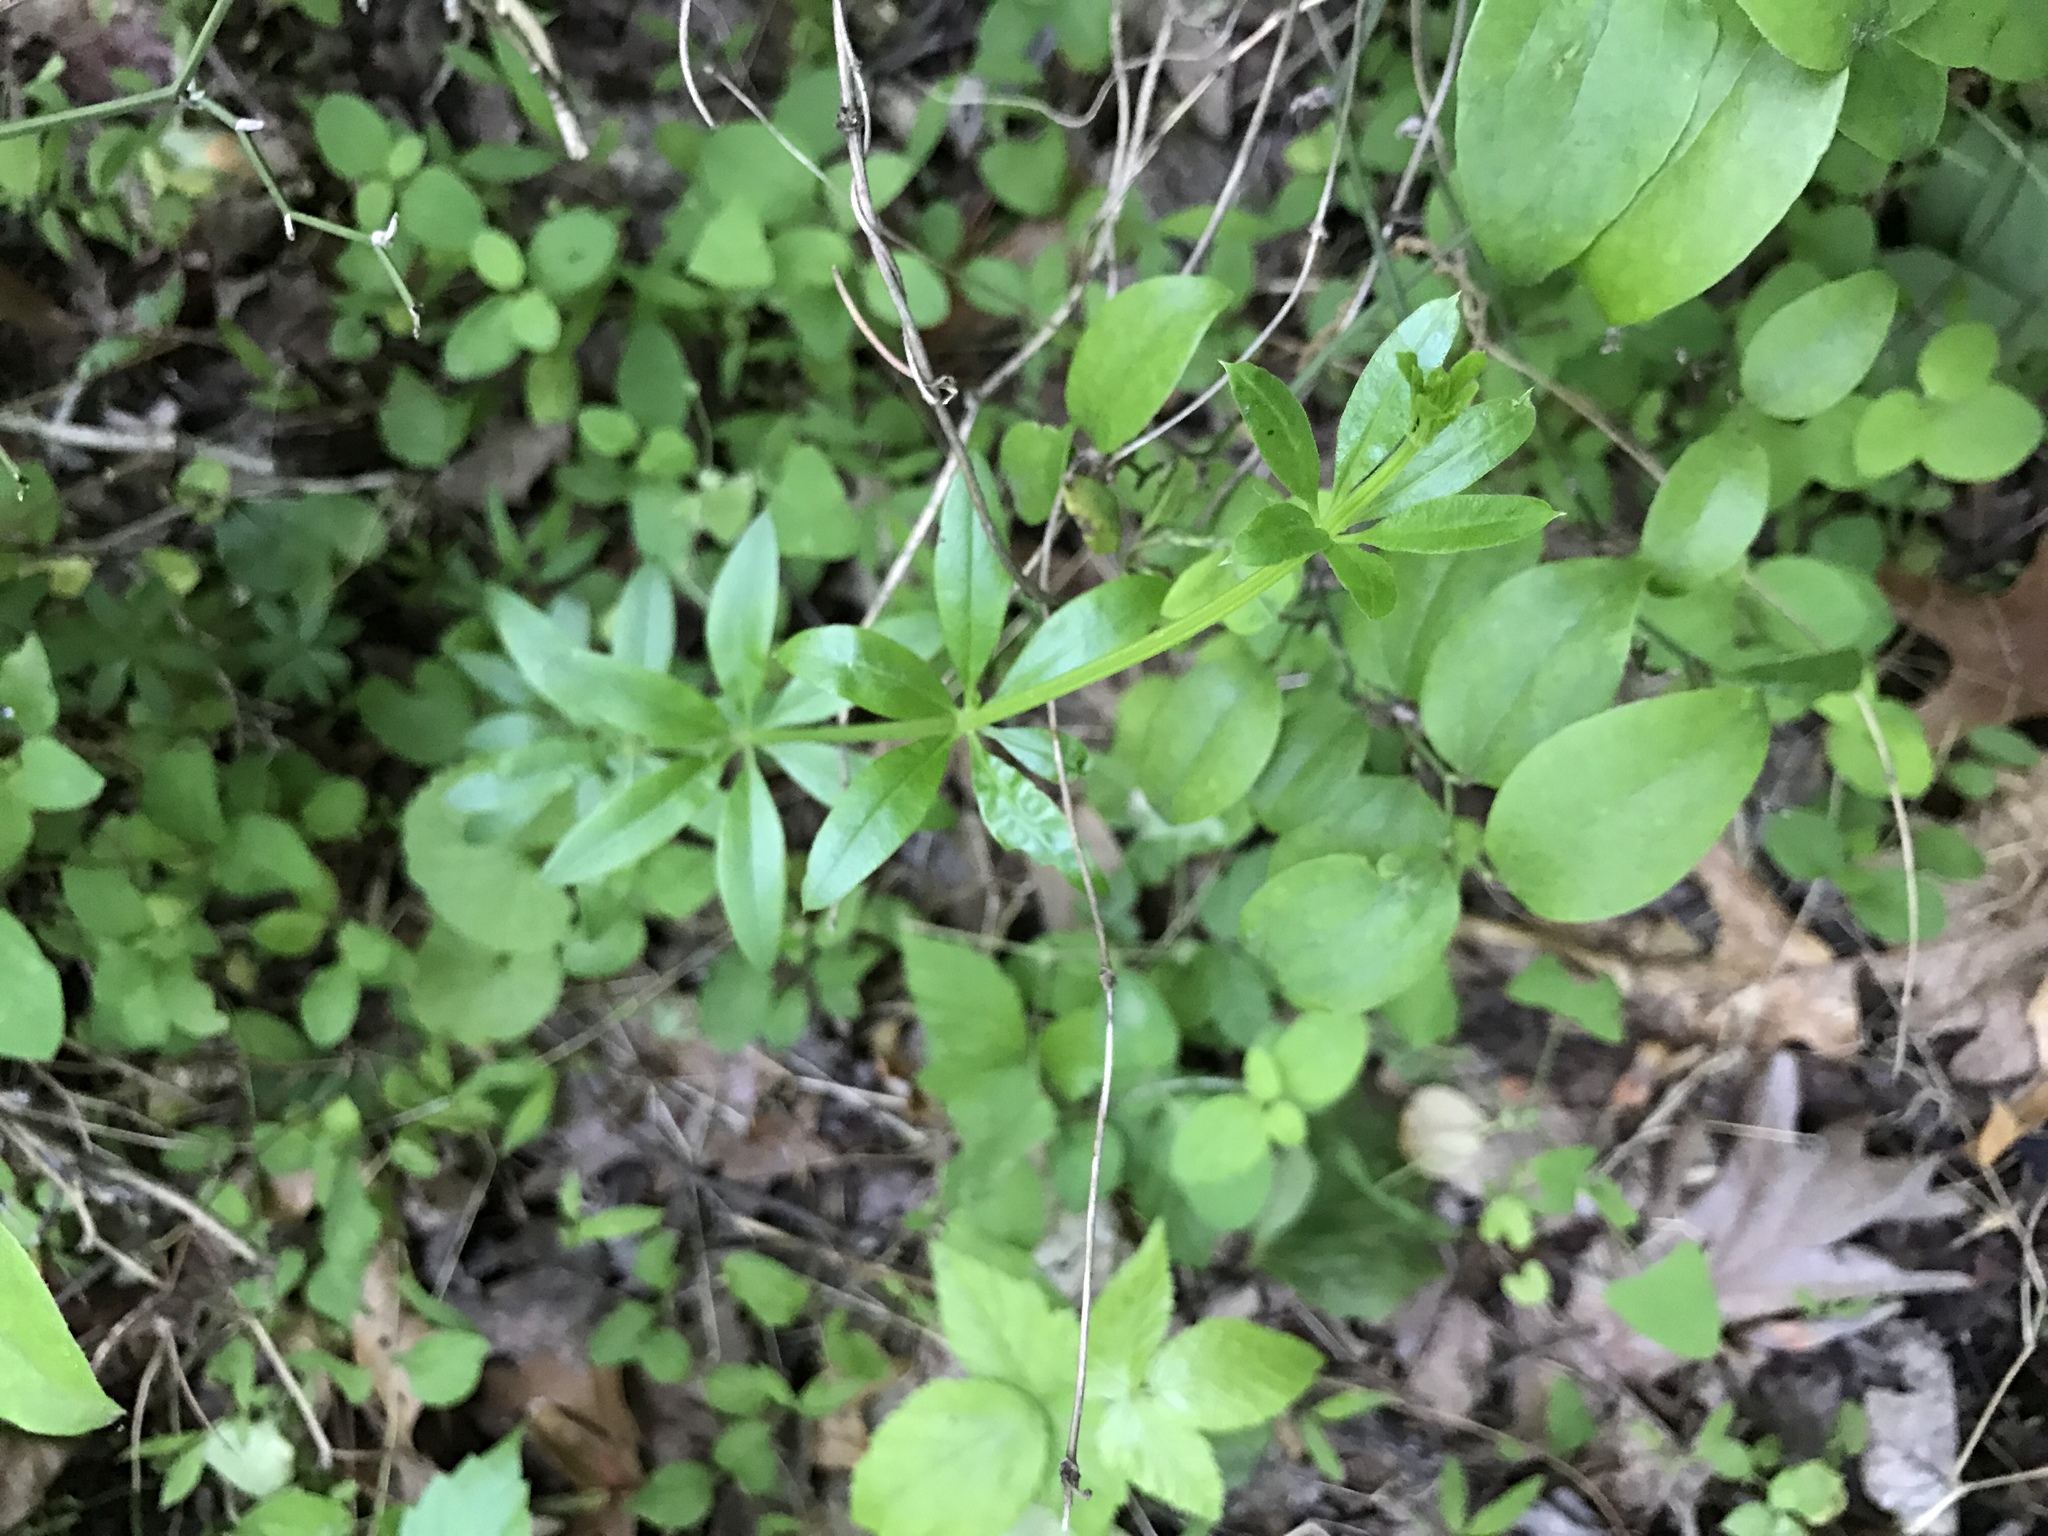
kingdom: Plantae
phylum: Tracheophyta
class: Magnoliopsida
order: Gentianales
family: Rubiaceae
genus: Galium
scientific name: Galium triflorum
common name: Fragrant bedstraw
